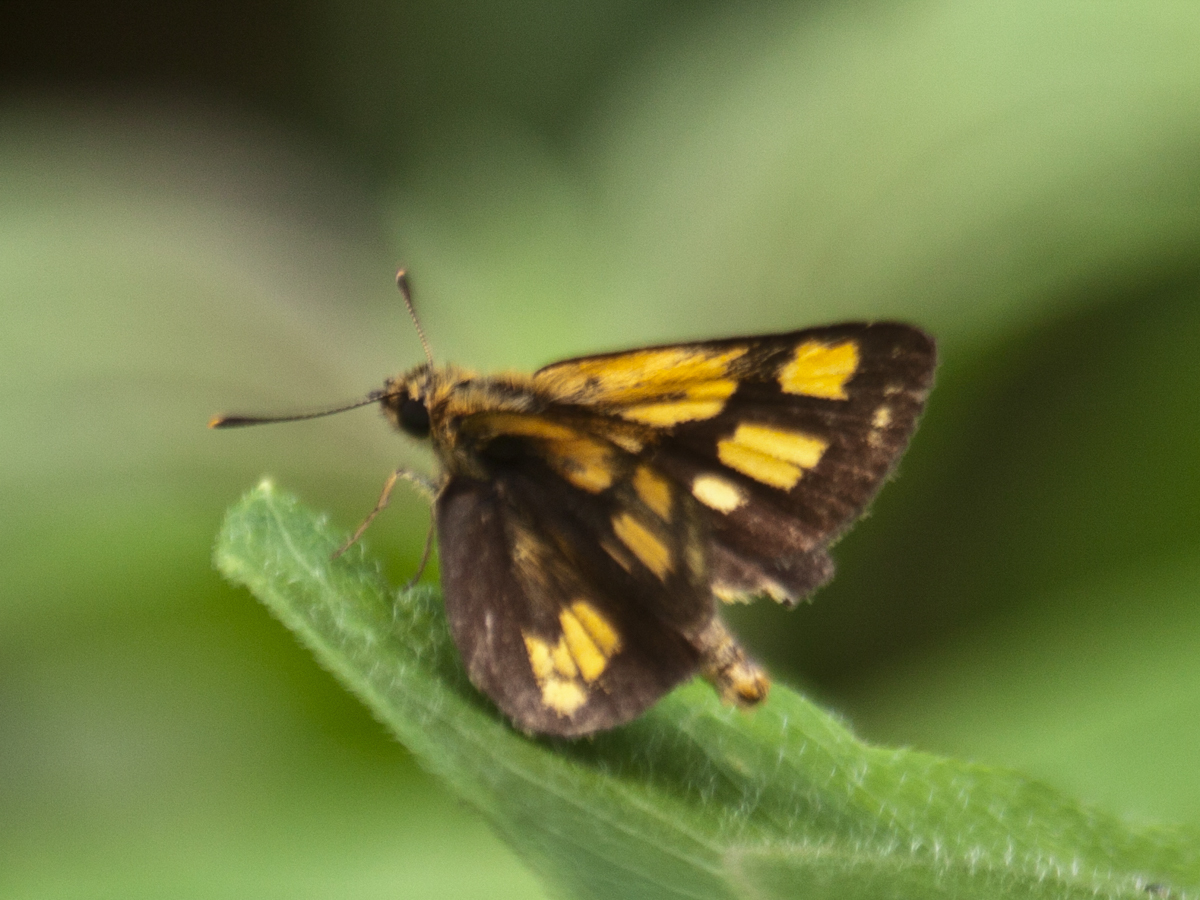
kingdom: Animalia
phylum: Arthropoda
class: Insecta
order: Lepidoptera
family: Hesperiidae
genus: Ampittia
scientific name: Ampittia dioscorides
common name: Common bush hopper
